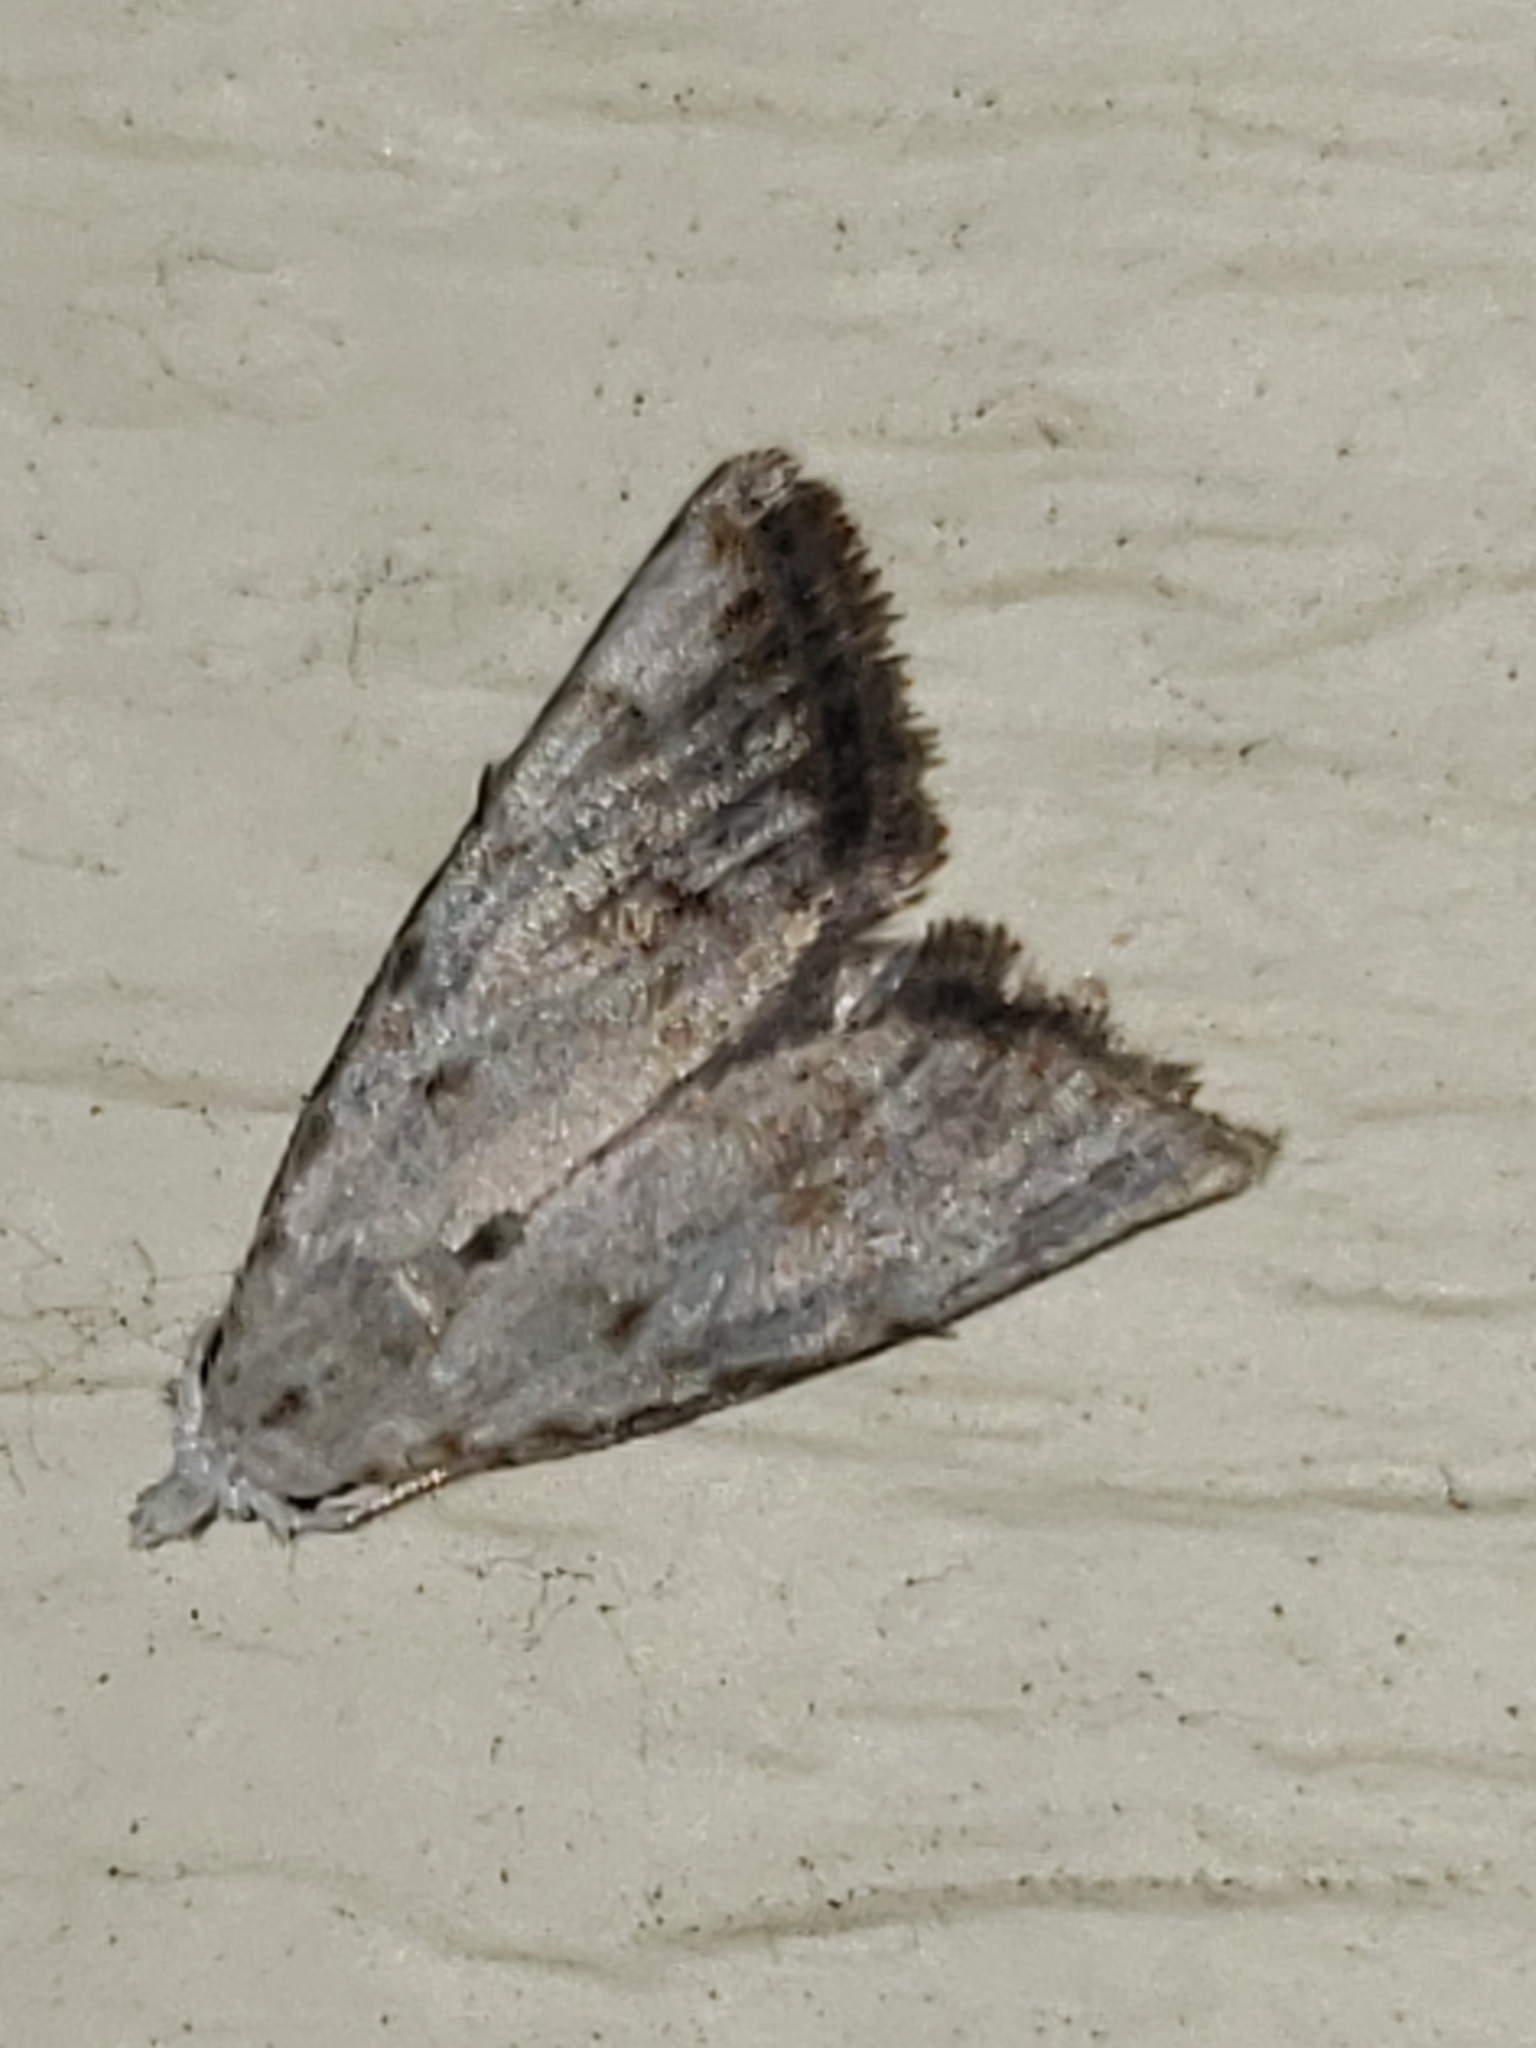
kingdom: Animalia
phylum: Arthropoda
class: Insecta
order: Lepidoptera
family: Nolidae
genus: Nola
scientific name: Nola cereella
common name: Sorghum webworm moth
